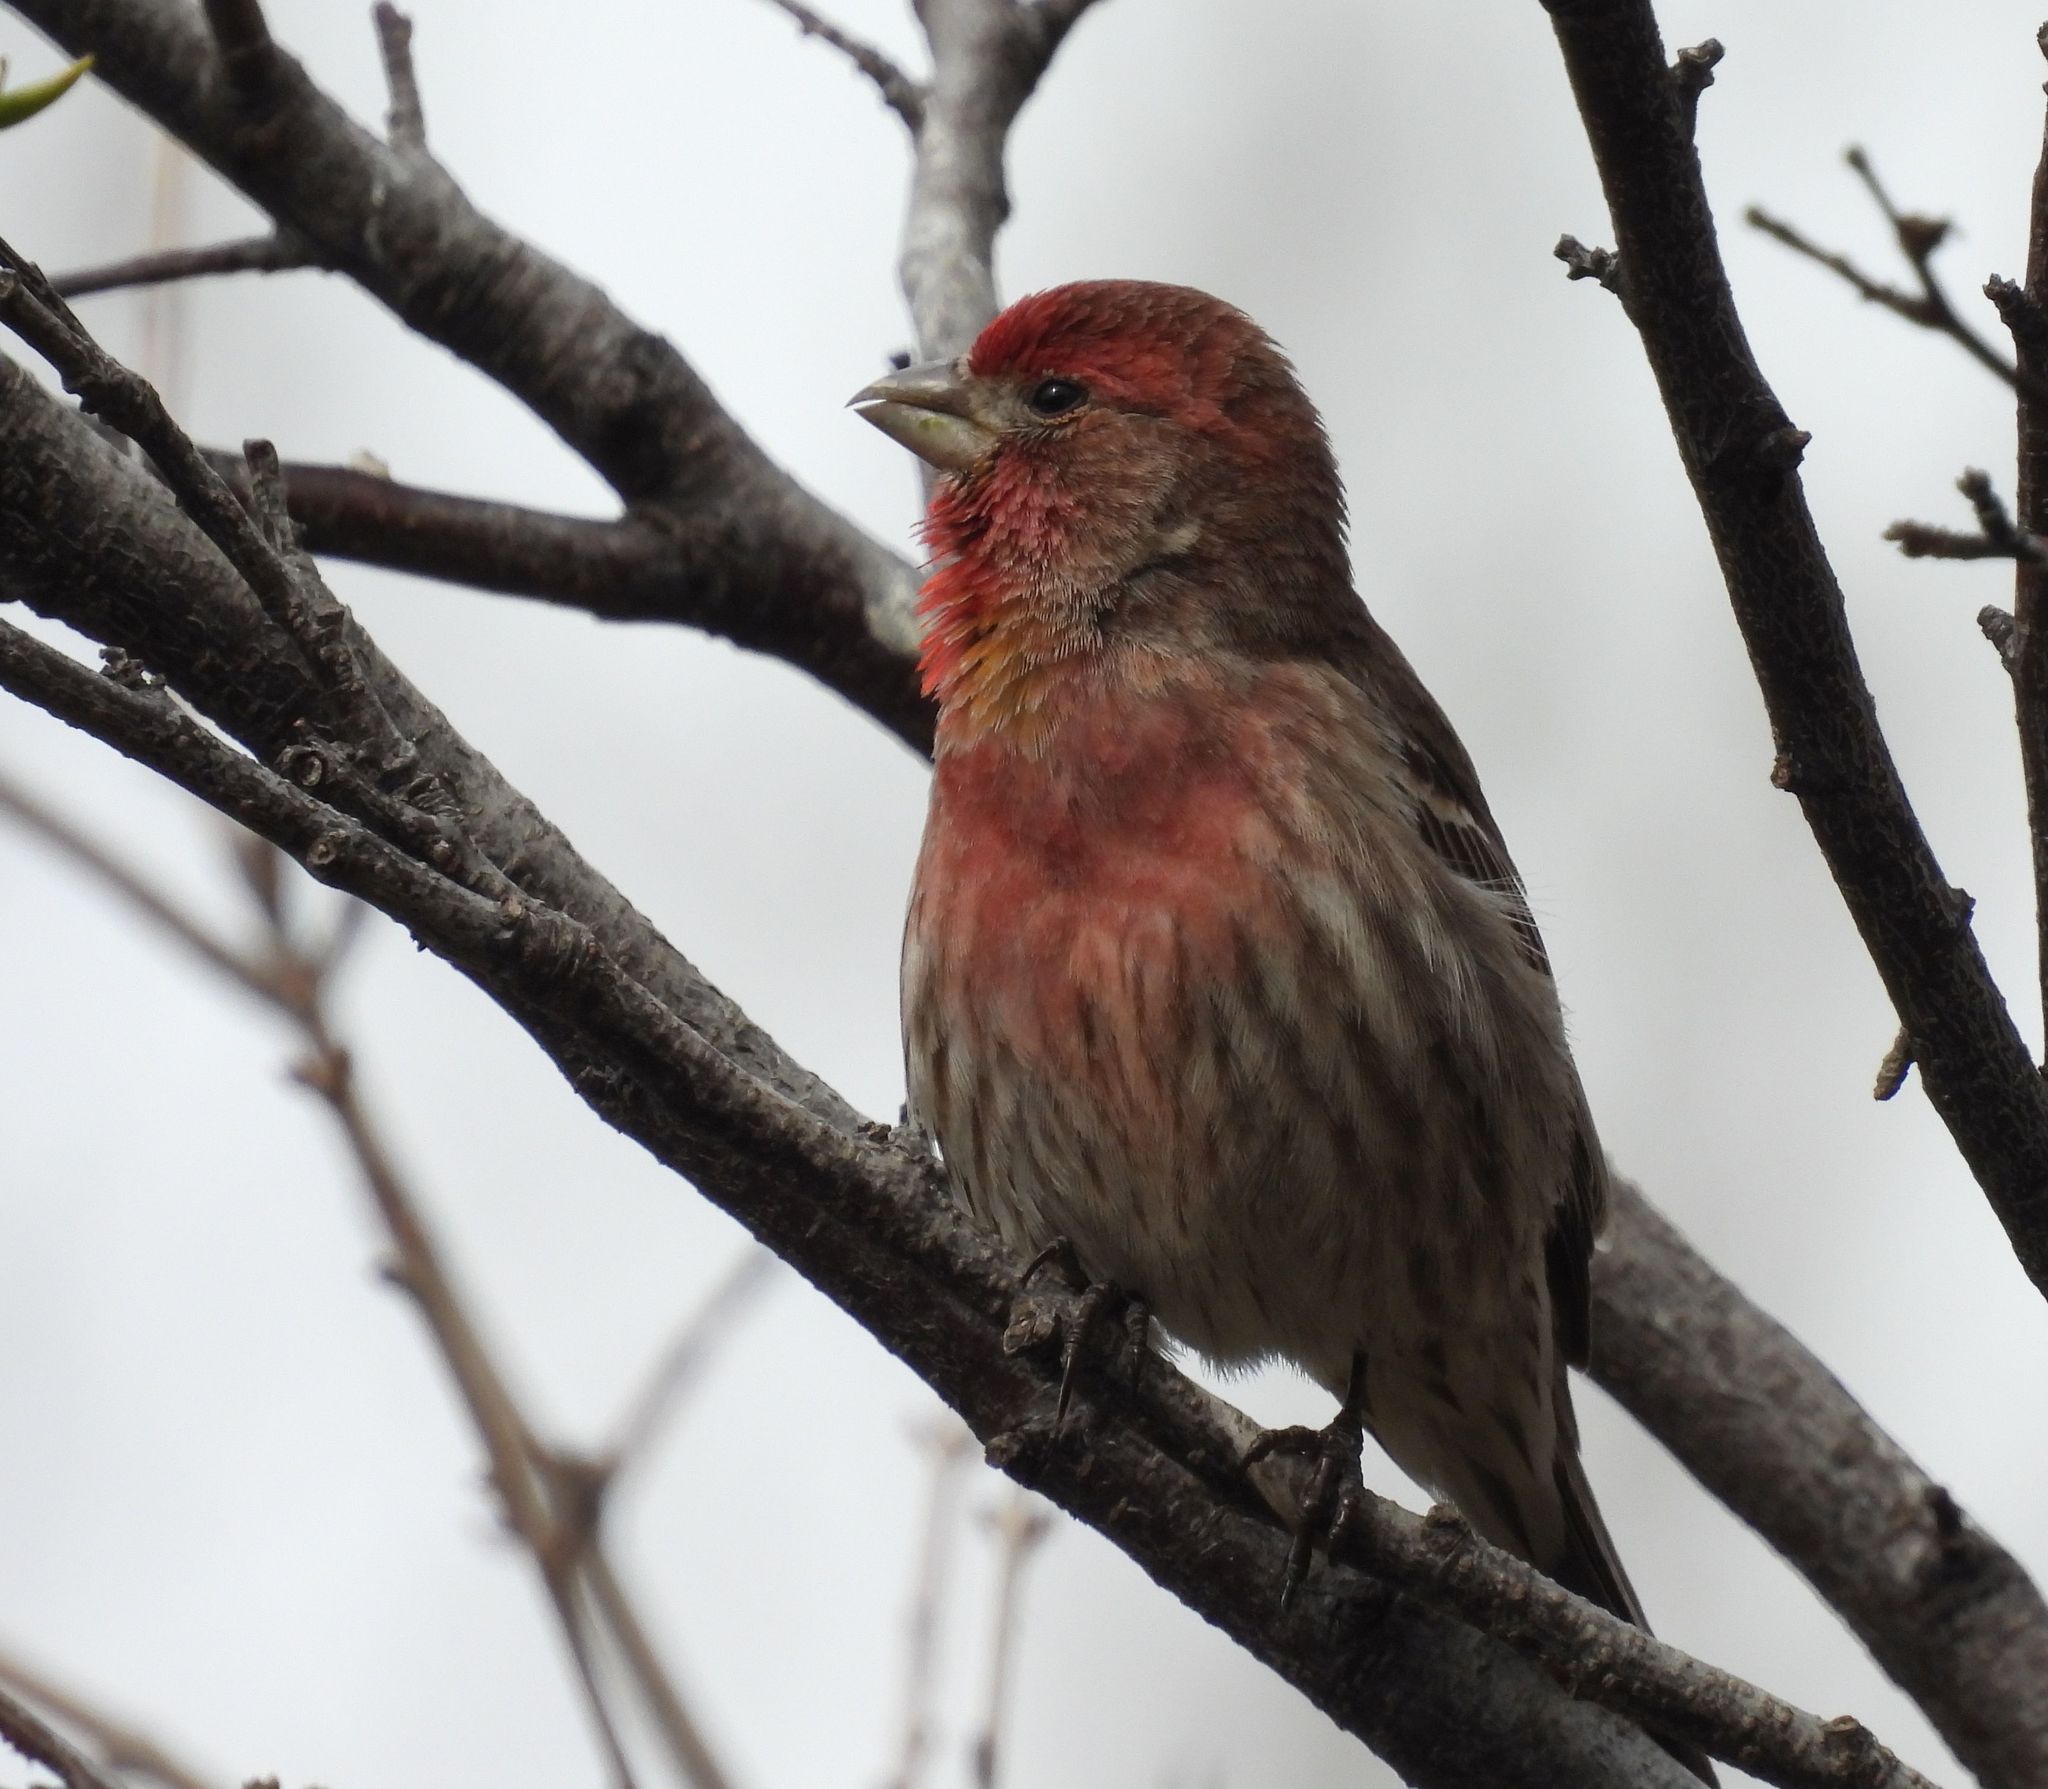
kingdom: Animalia
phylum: Chordata
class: Aves
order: Passeriformes
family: Fringillidae
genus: Haemorhous
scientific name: Haemorhous mexicanus
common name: House finch
